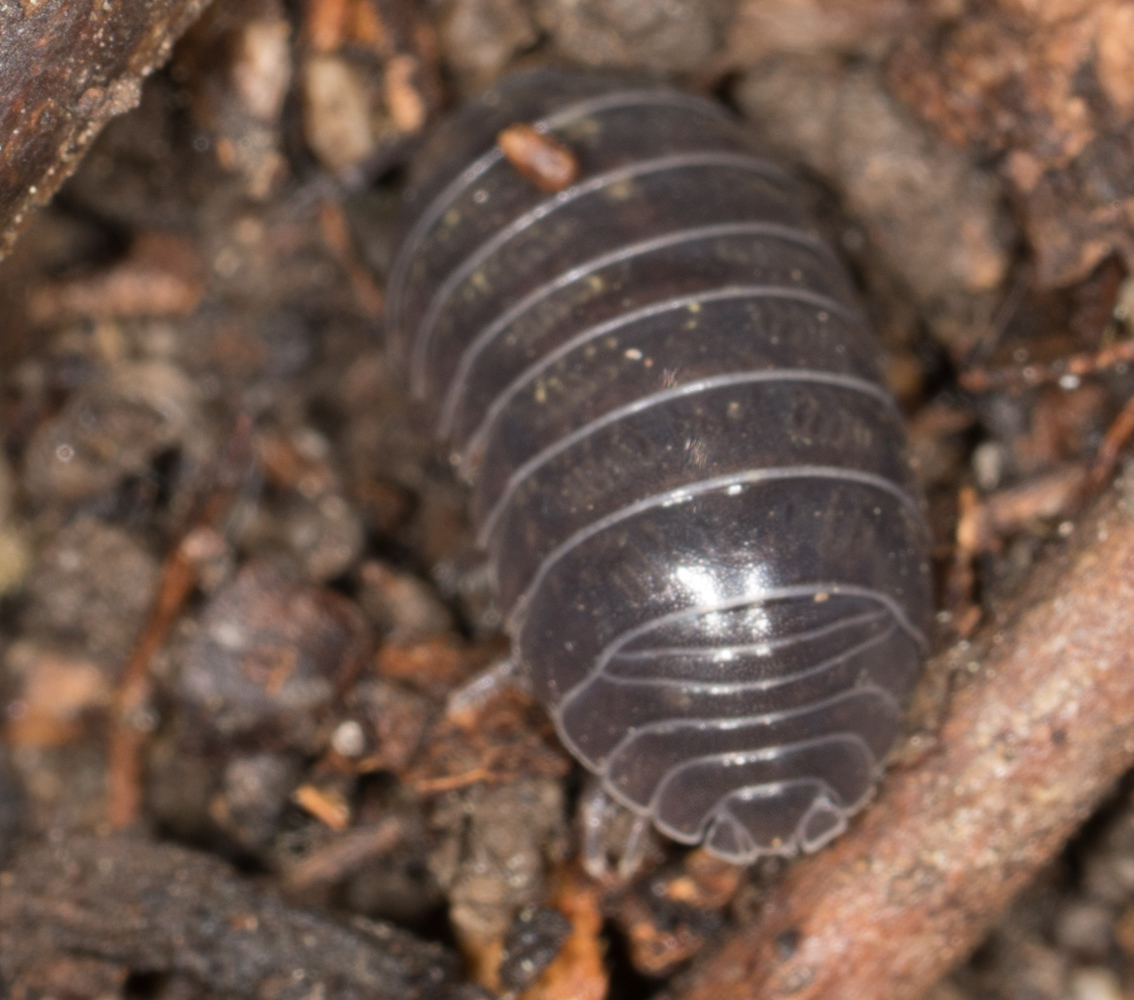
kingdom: Animalia
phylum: Arthropoda
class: Malacostraca
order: Isopoda
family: Armadillidiidae
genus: Armadillidium
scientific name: Armadillidium vulgare
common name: Common pill woodlouse
